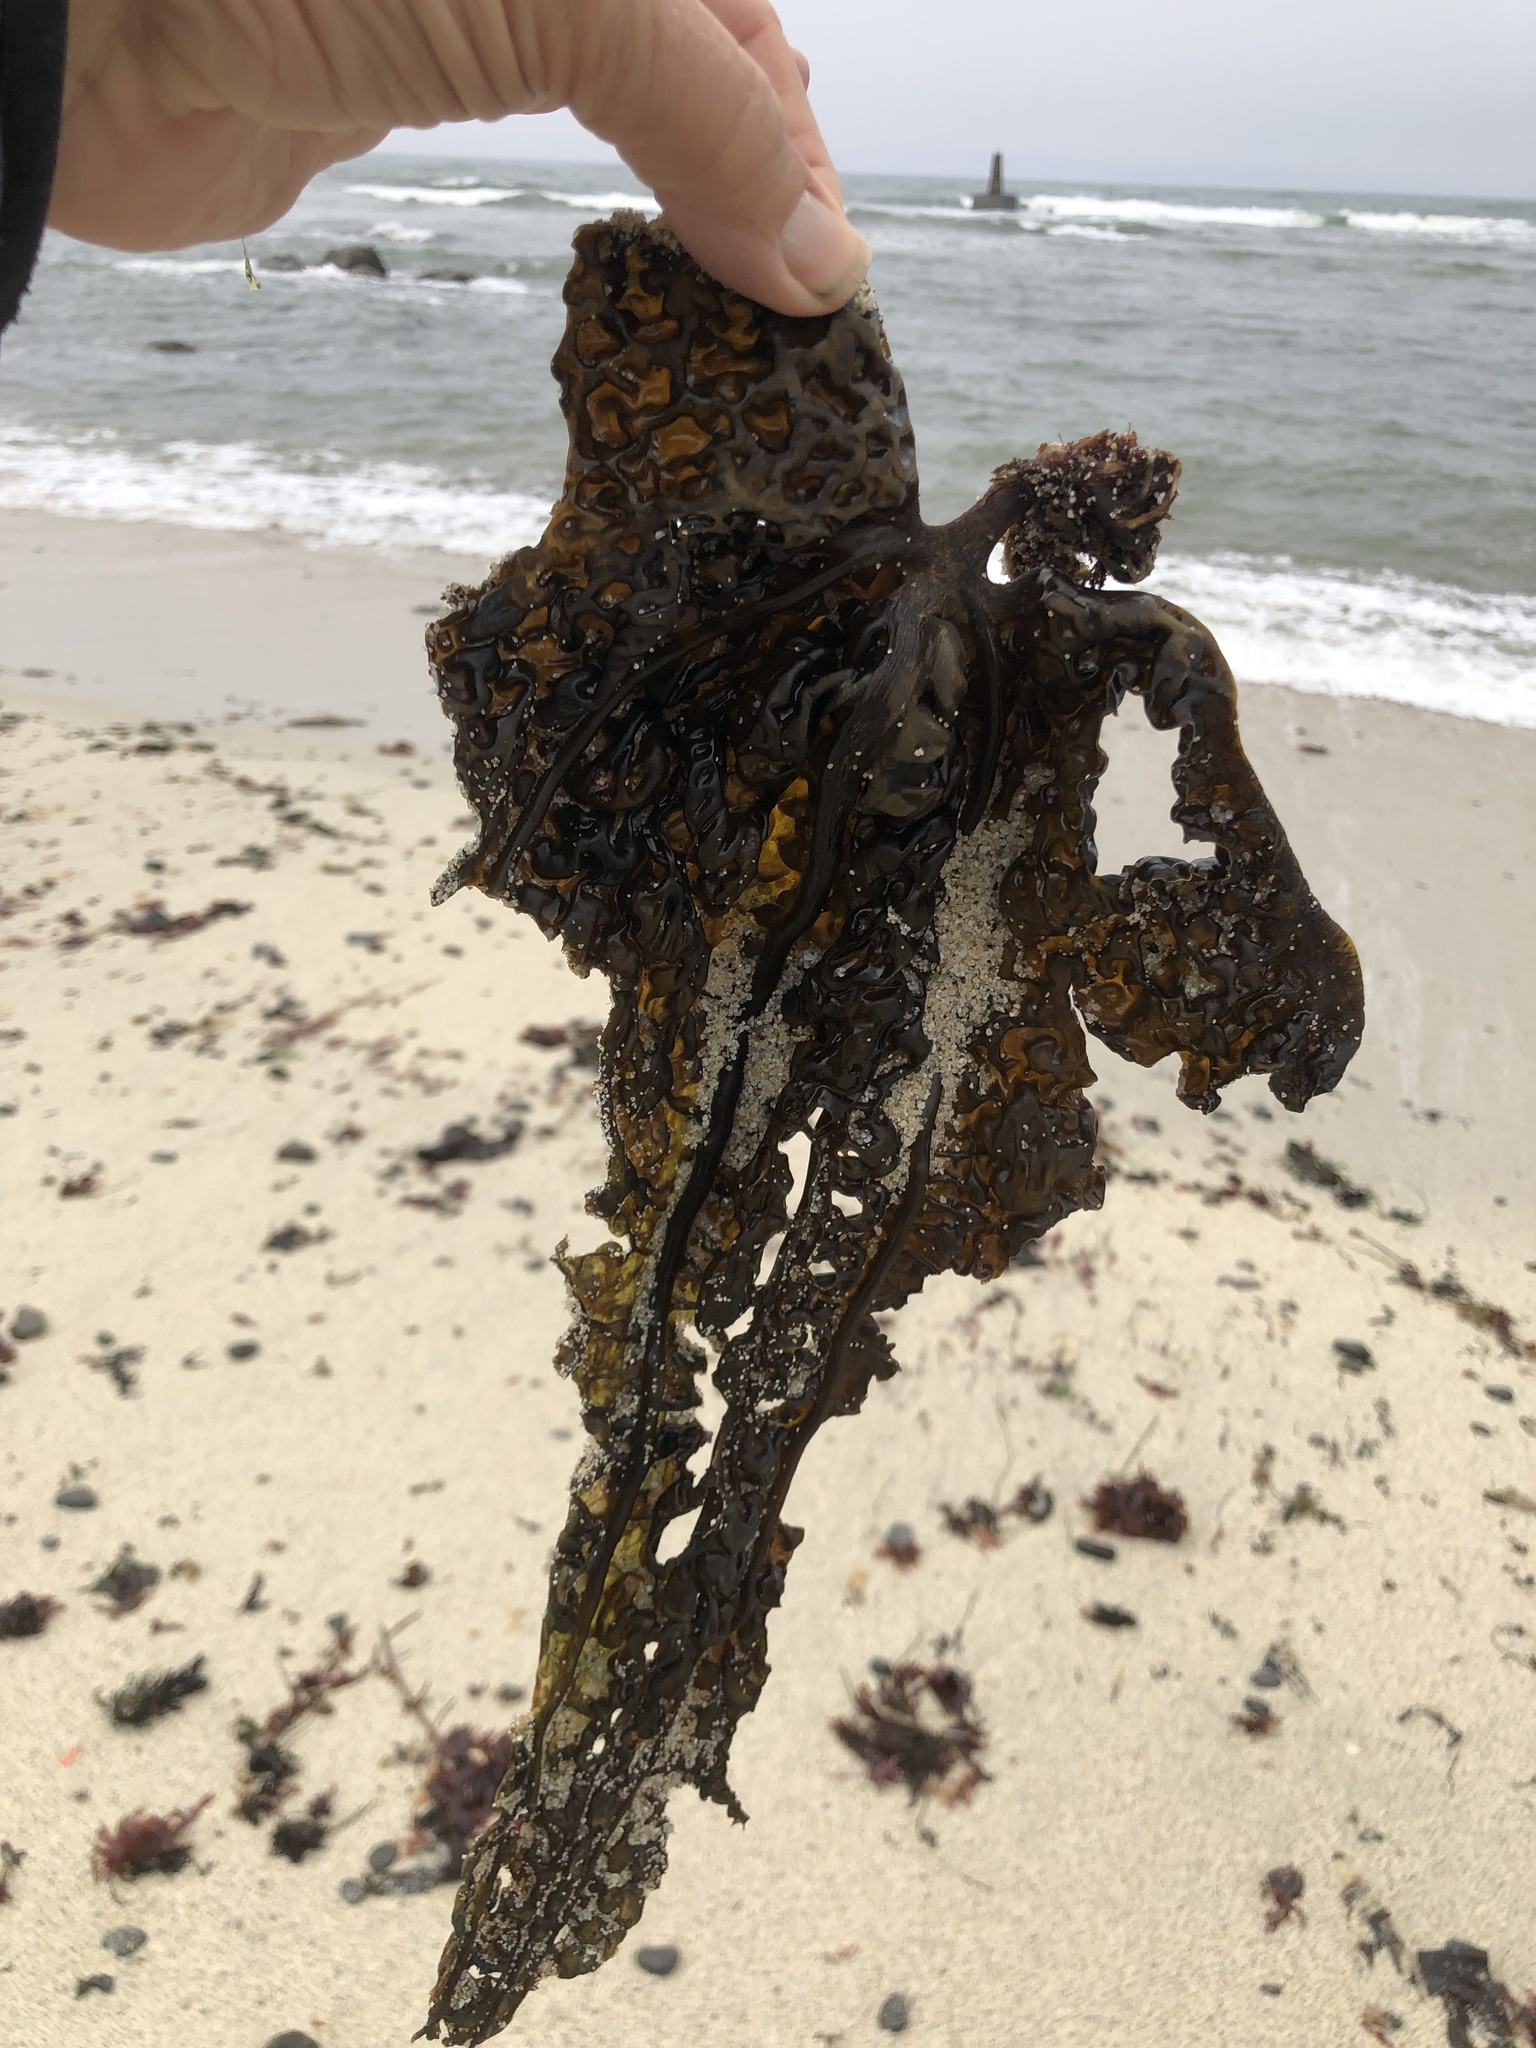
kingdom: Chromista
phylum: Ochrophyta
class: Phaeophyceae
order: Laminariales
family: Costariaceae
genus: Costaria
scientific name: Costaria costata
